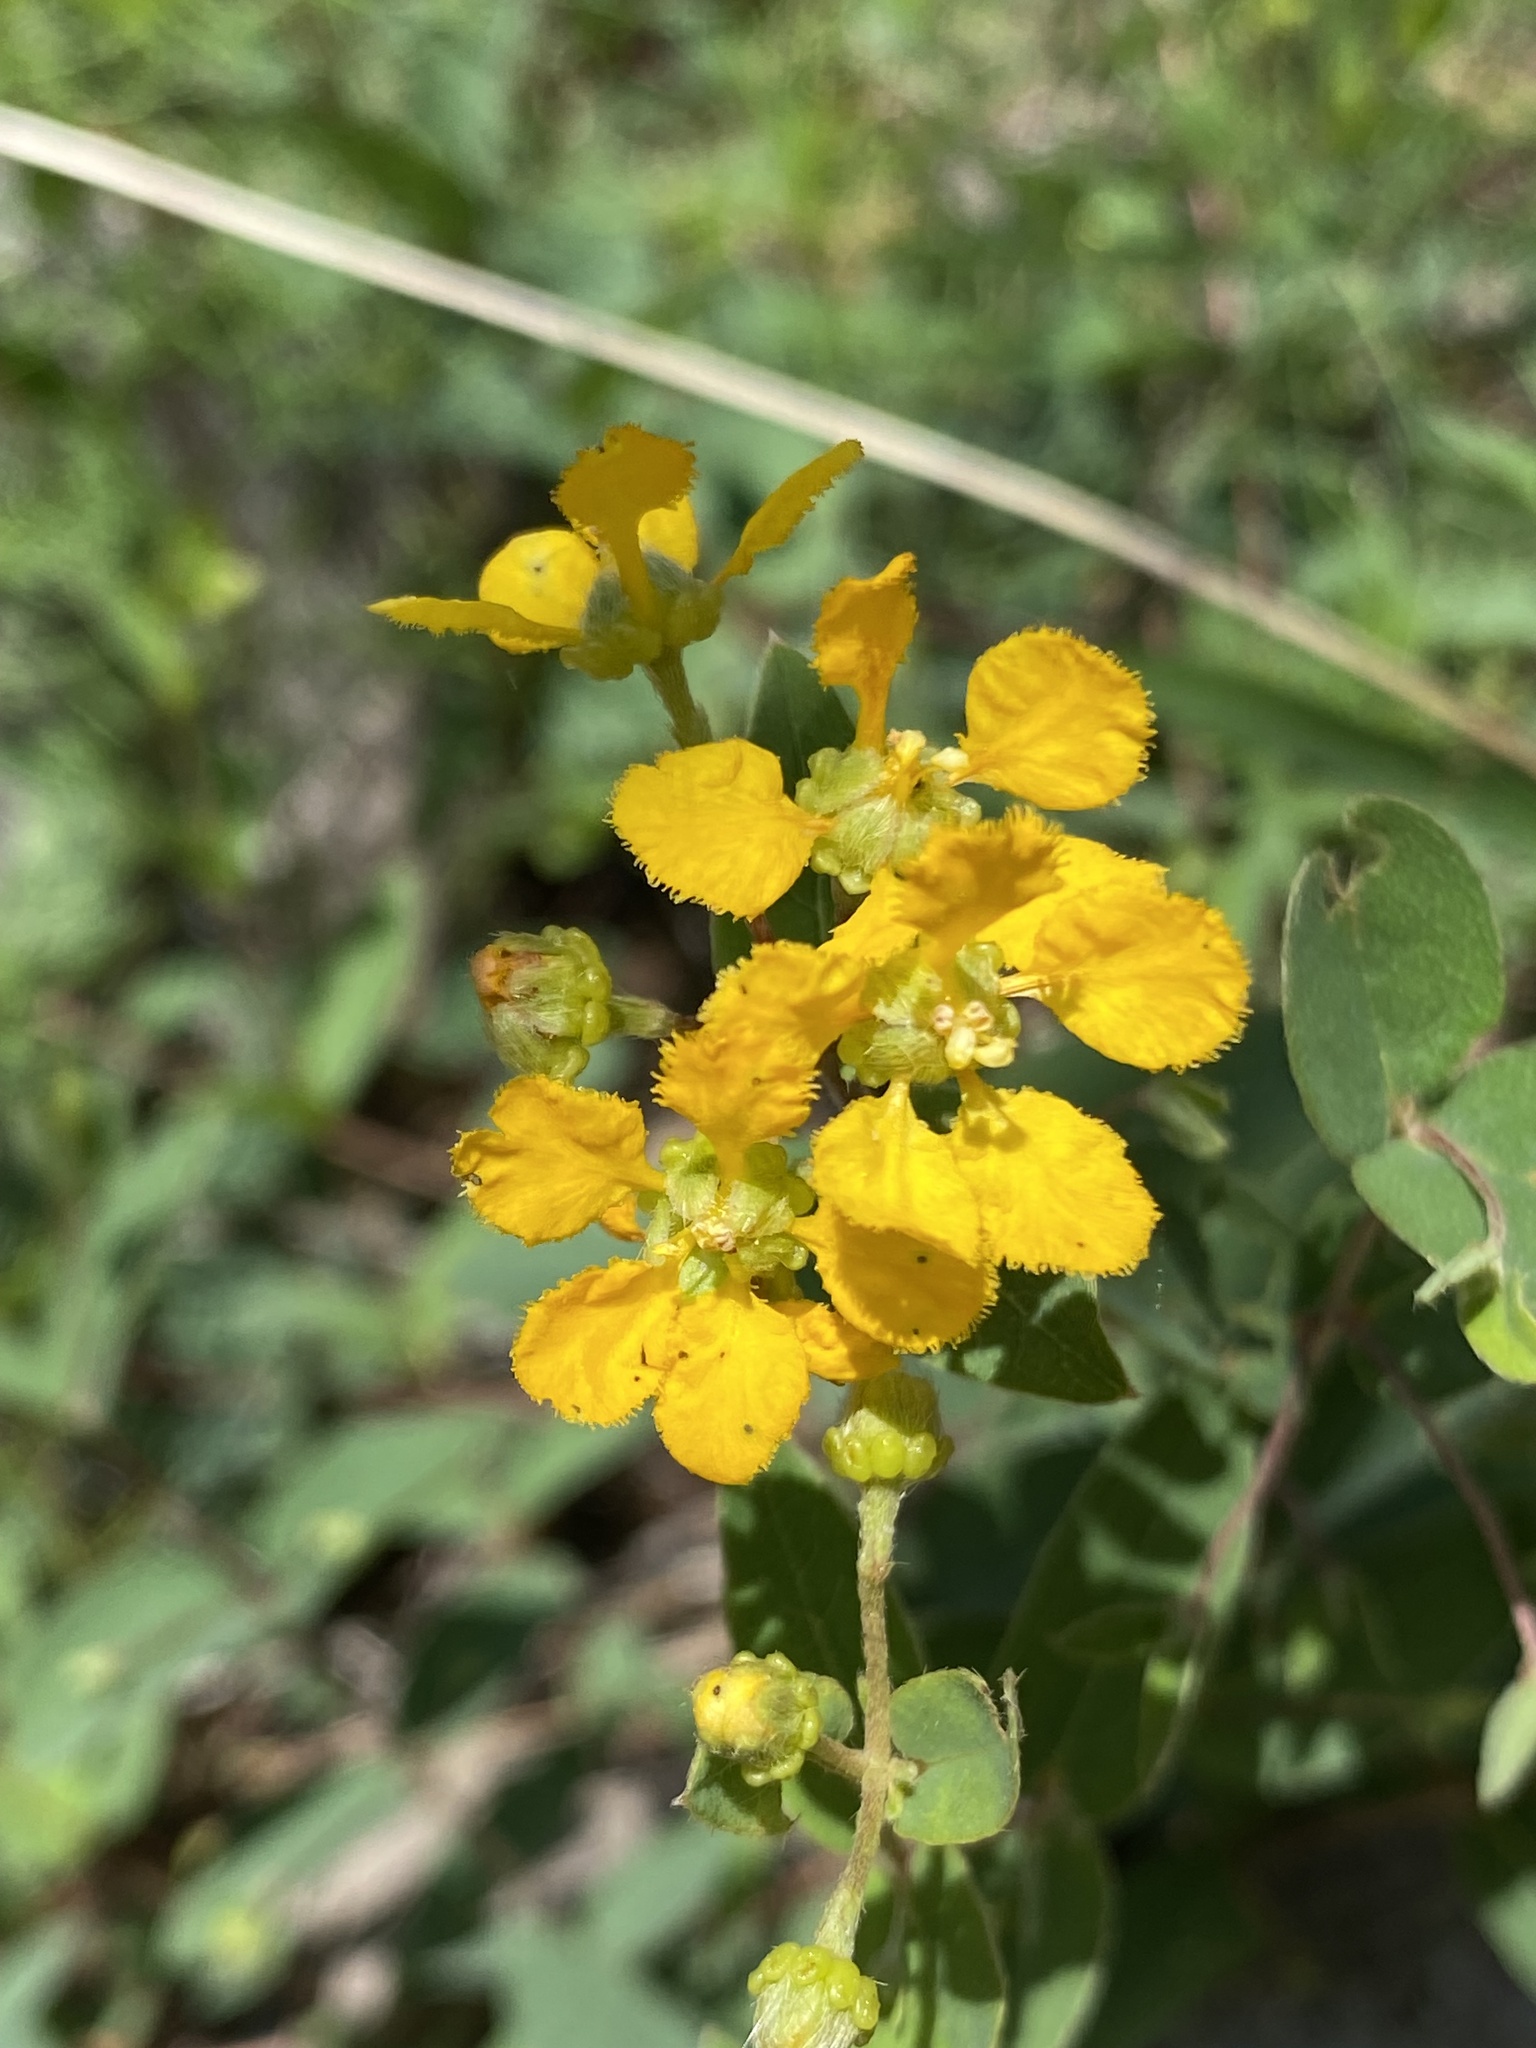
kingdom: Plantae
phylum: Tracheophyta
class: Magnoliopsida
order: Malpighiales
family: Malpighiaceae
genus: Aspicarpa
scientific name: Aspicarpa hirtella
